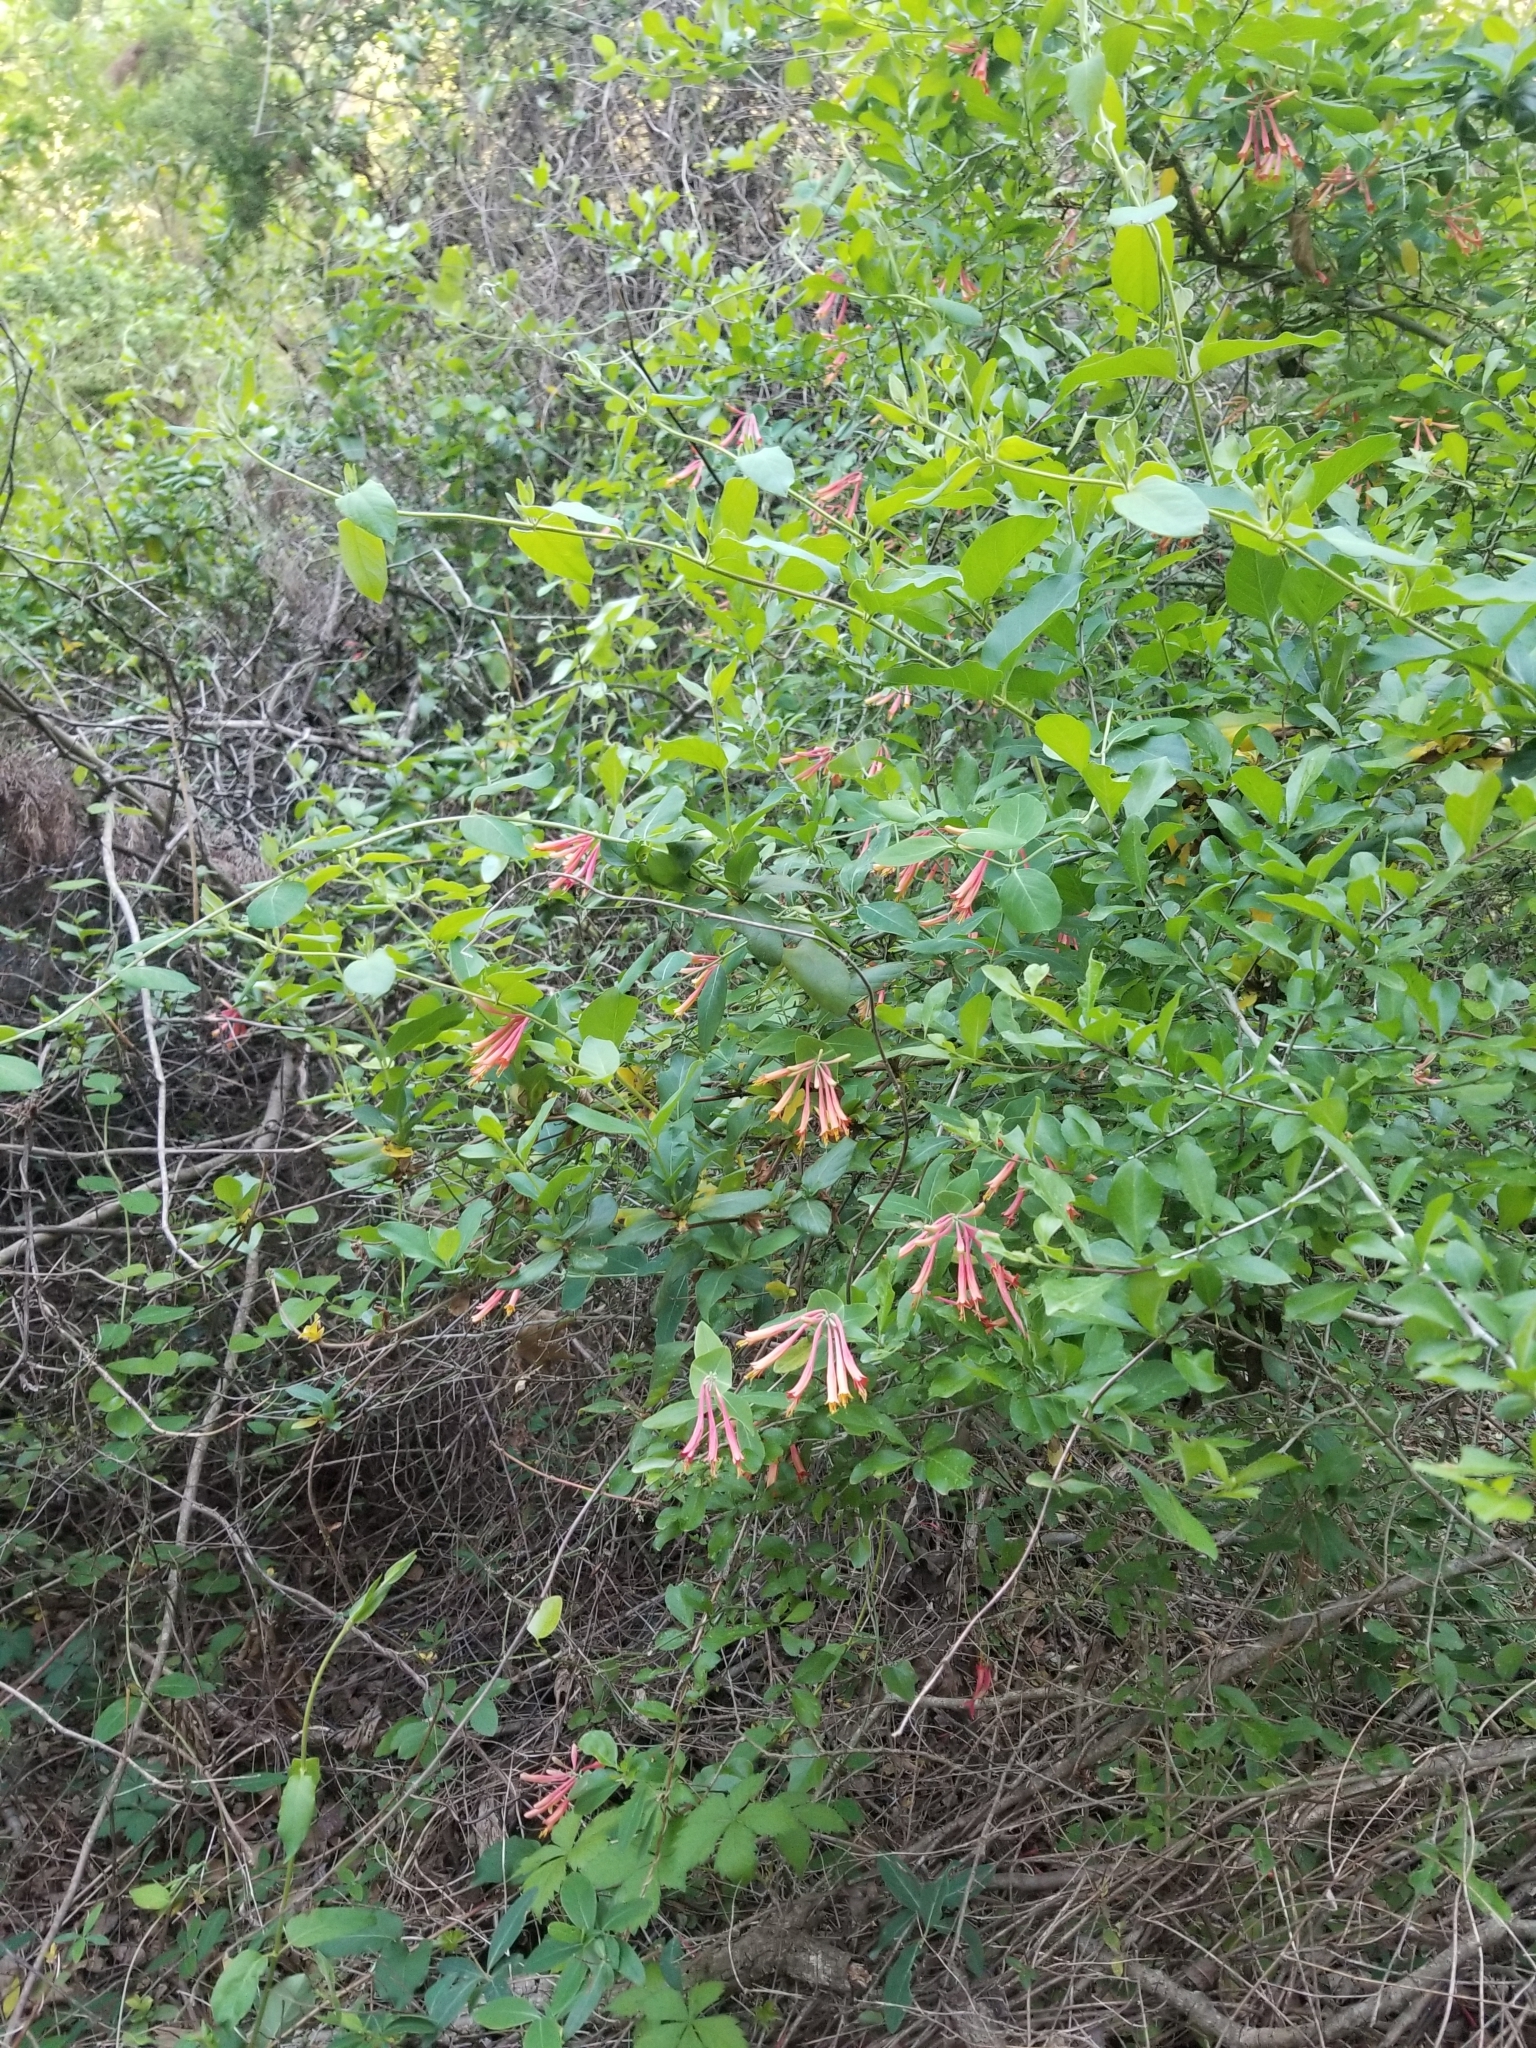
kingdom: Plantae
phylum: Tracheophyta
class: Magnoliopsida
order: Dipsacales
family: Caprifoliaceae
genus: Lonicera
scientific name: Lonicera sempervirens
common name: Coral honeysuckle
